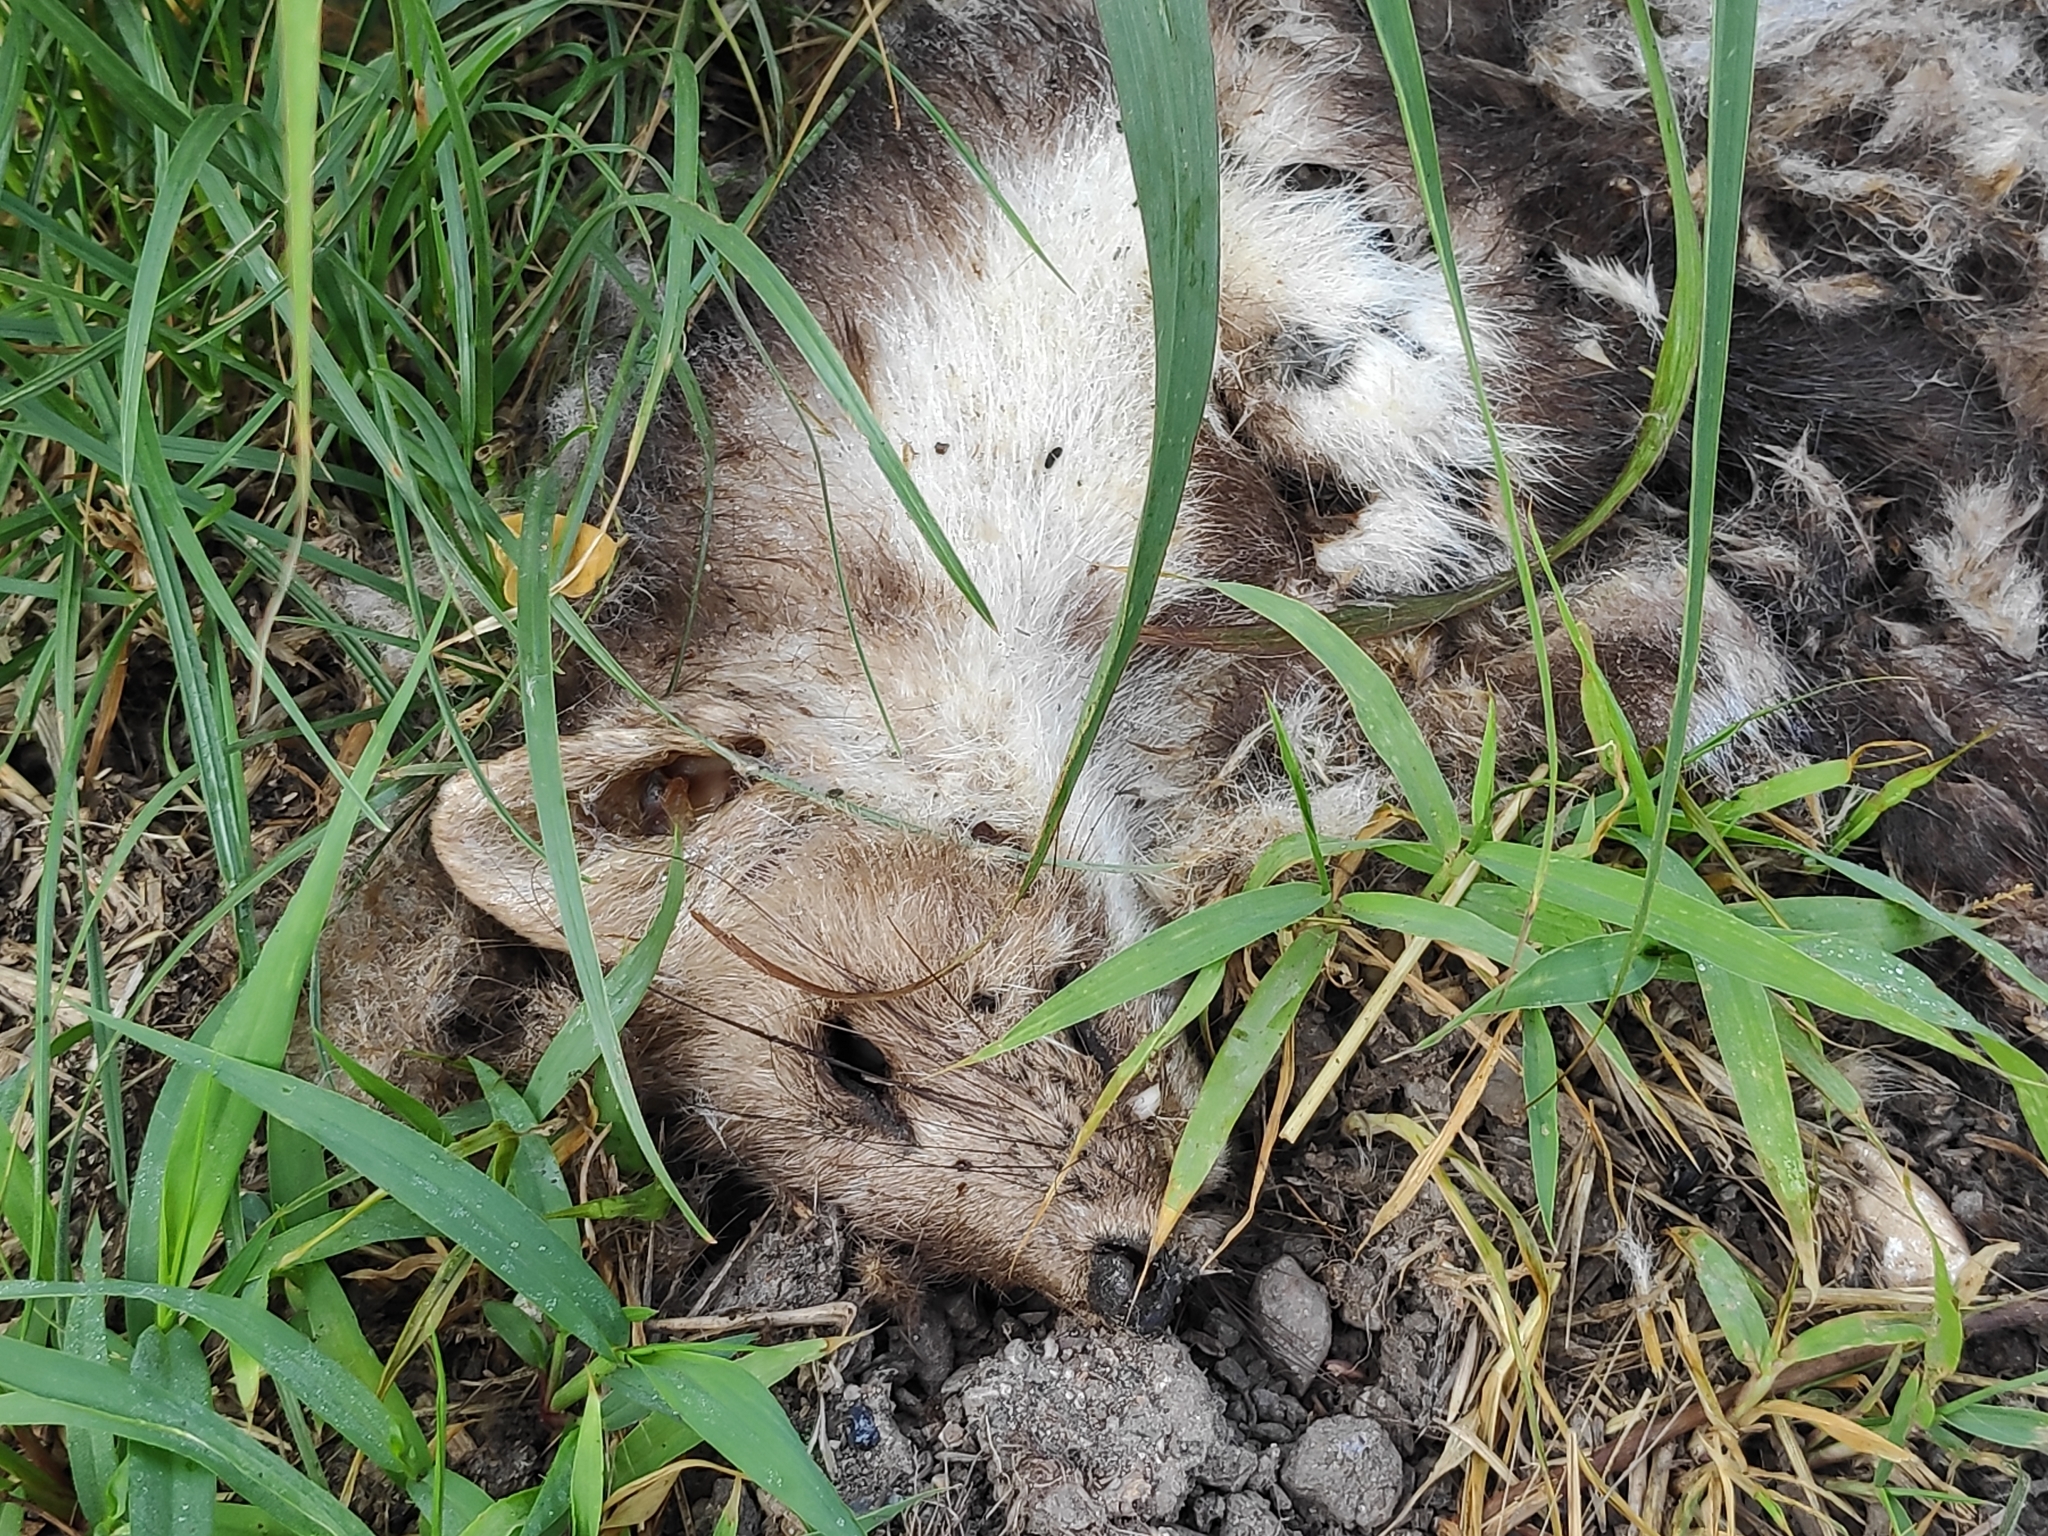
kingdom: Animalia
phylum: Chordata
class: Mammalia
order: Carnivora
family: Mustelidae
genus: Martes
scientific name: Martes foina
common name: Beech marten
